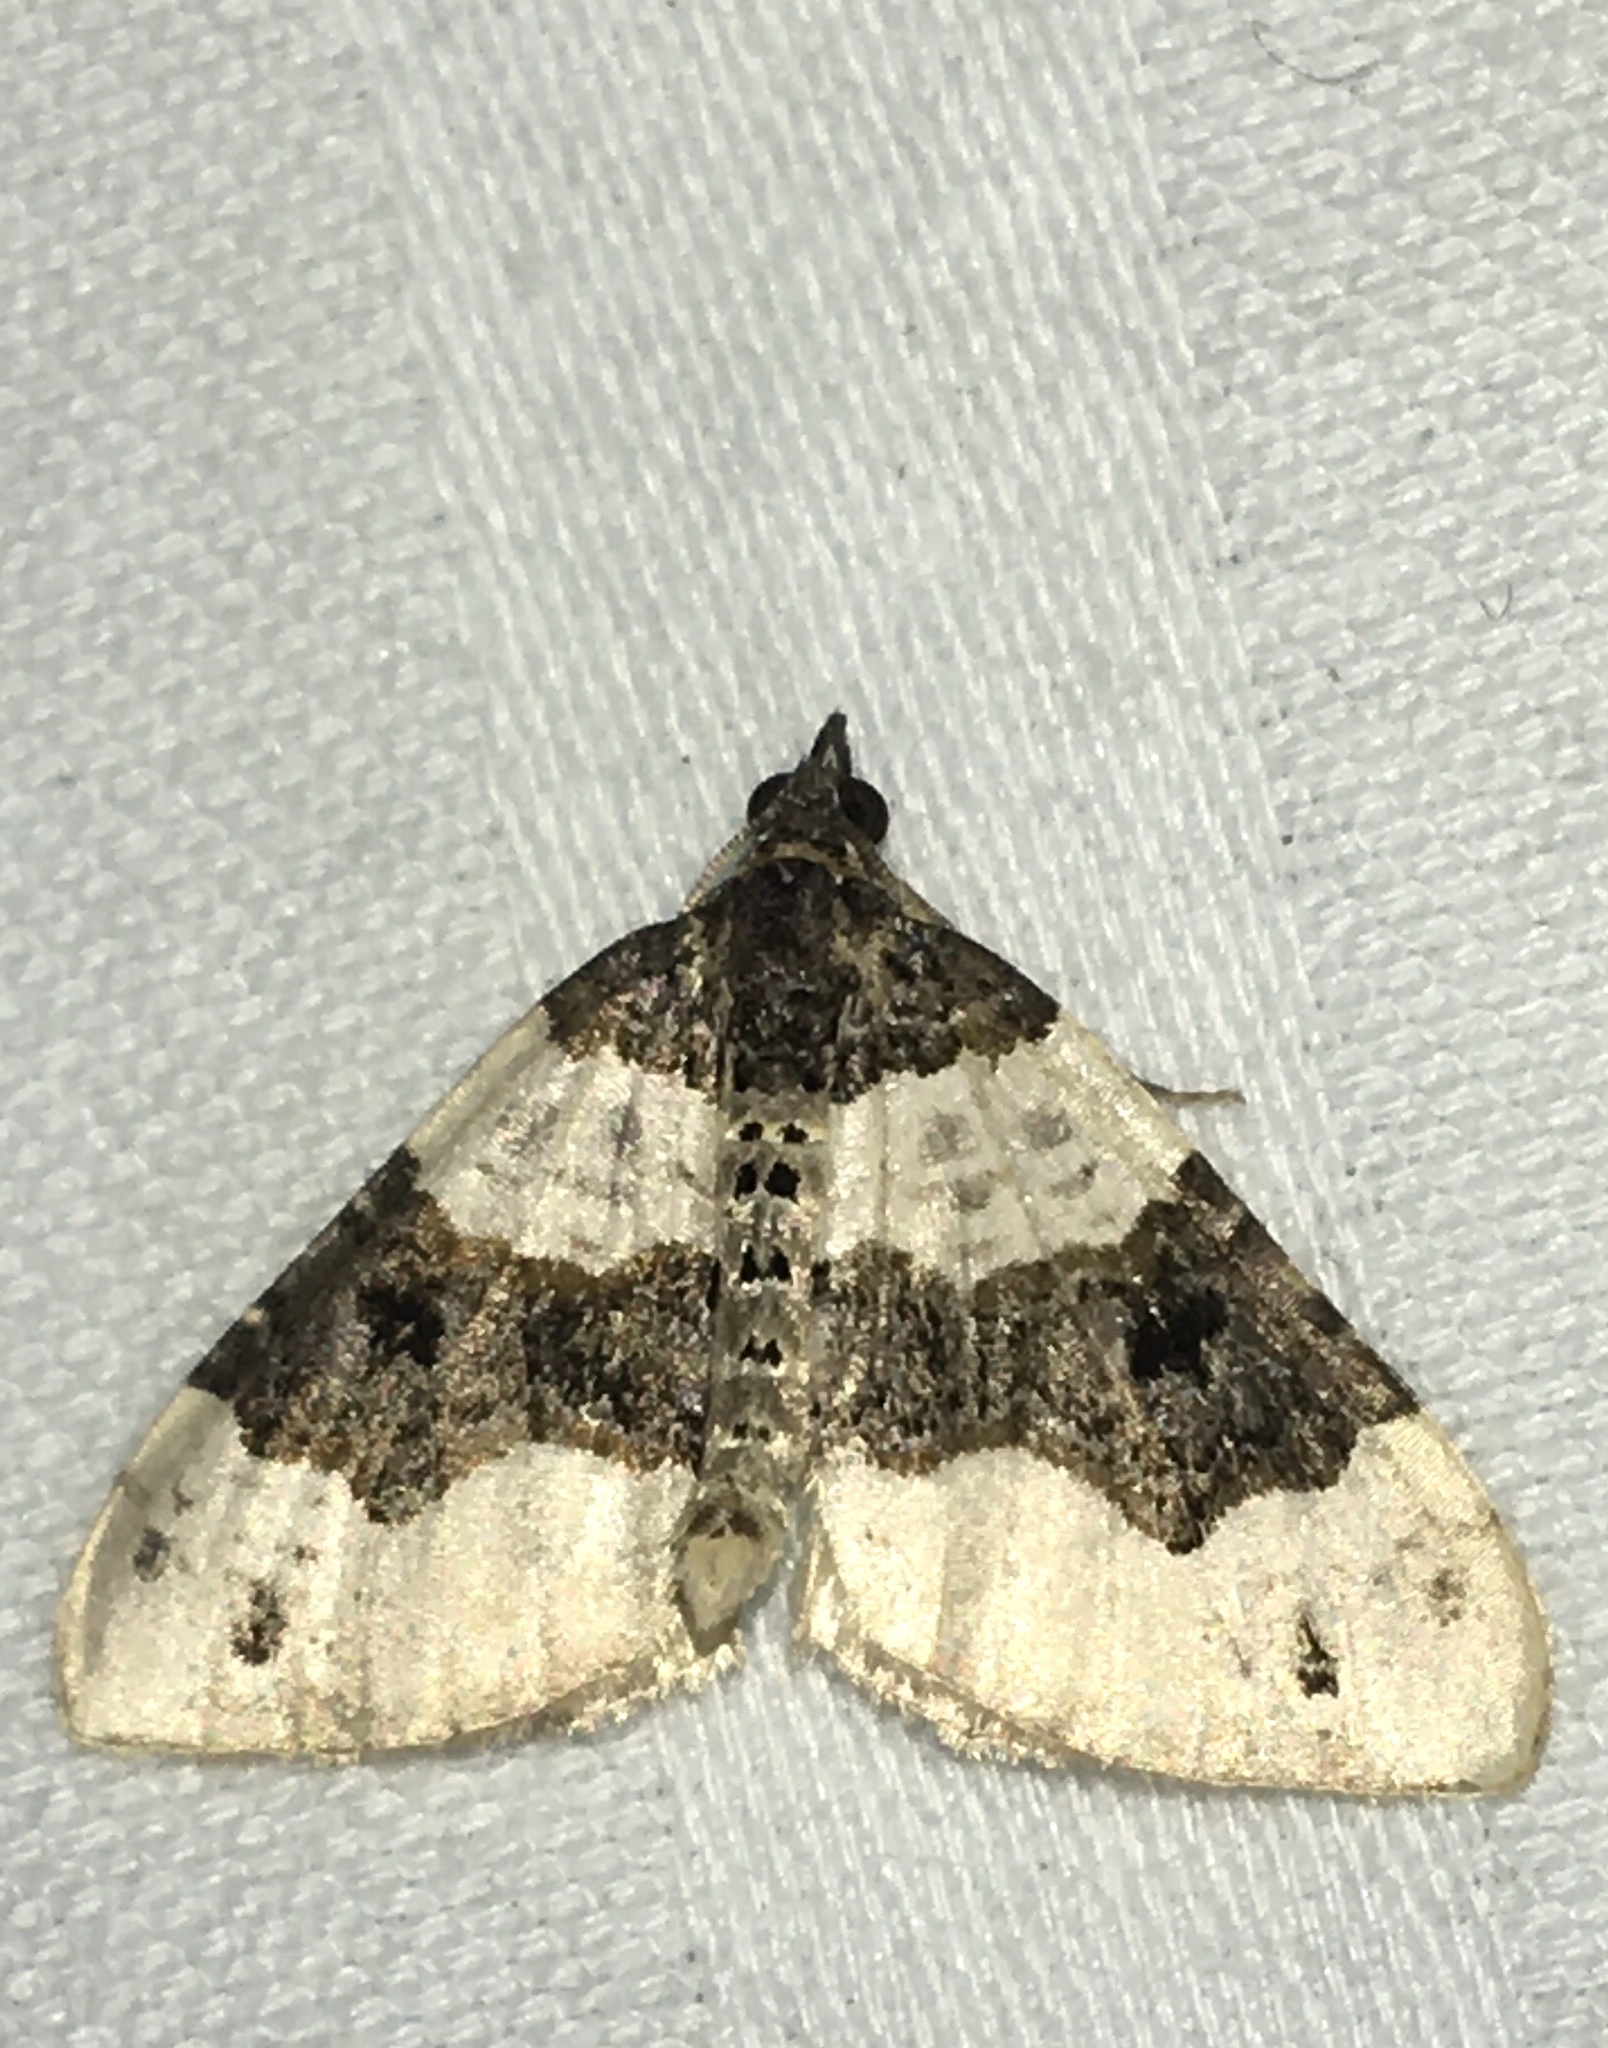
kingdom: Animalia
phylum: Arthropoda
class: Insecta
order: Lepidoptera
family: Geometridae
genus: Cosmorhoe
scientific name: Cosmorhoe ocellata
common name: Purple bar
